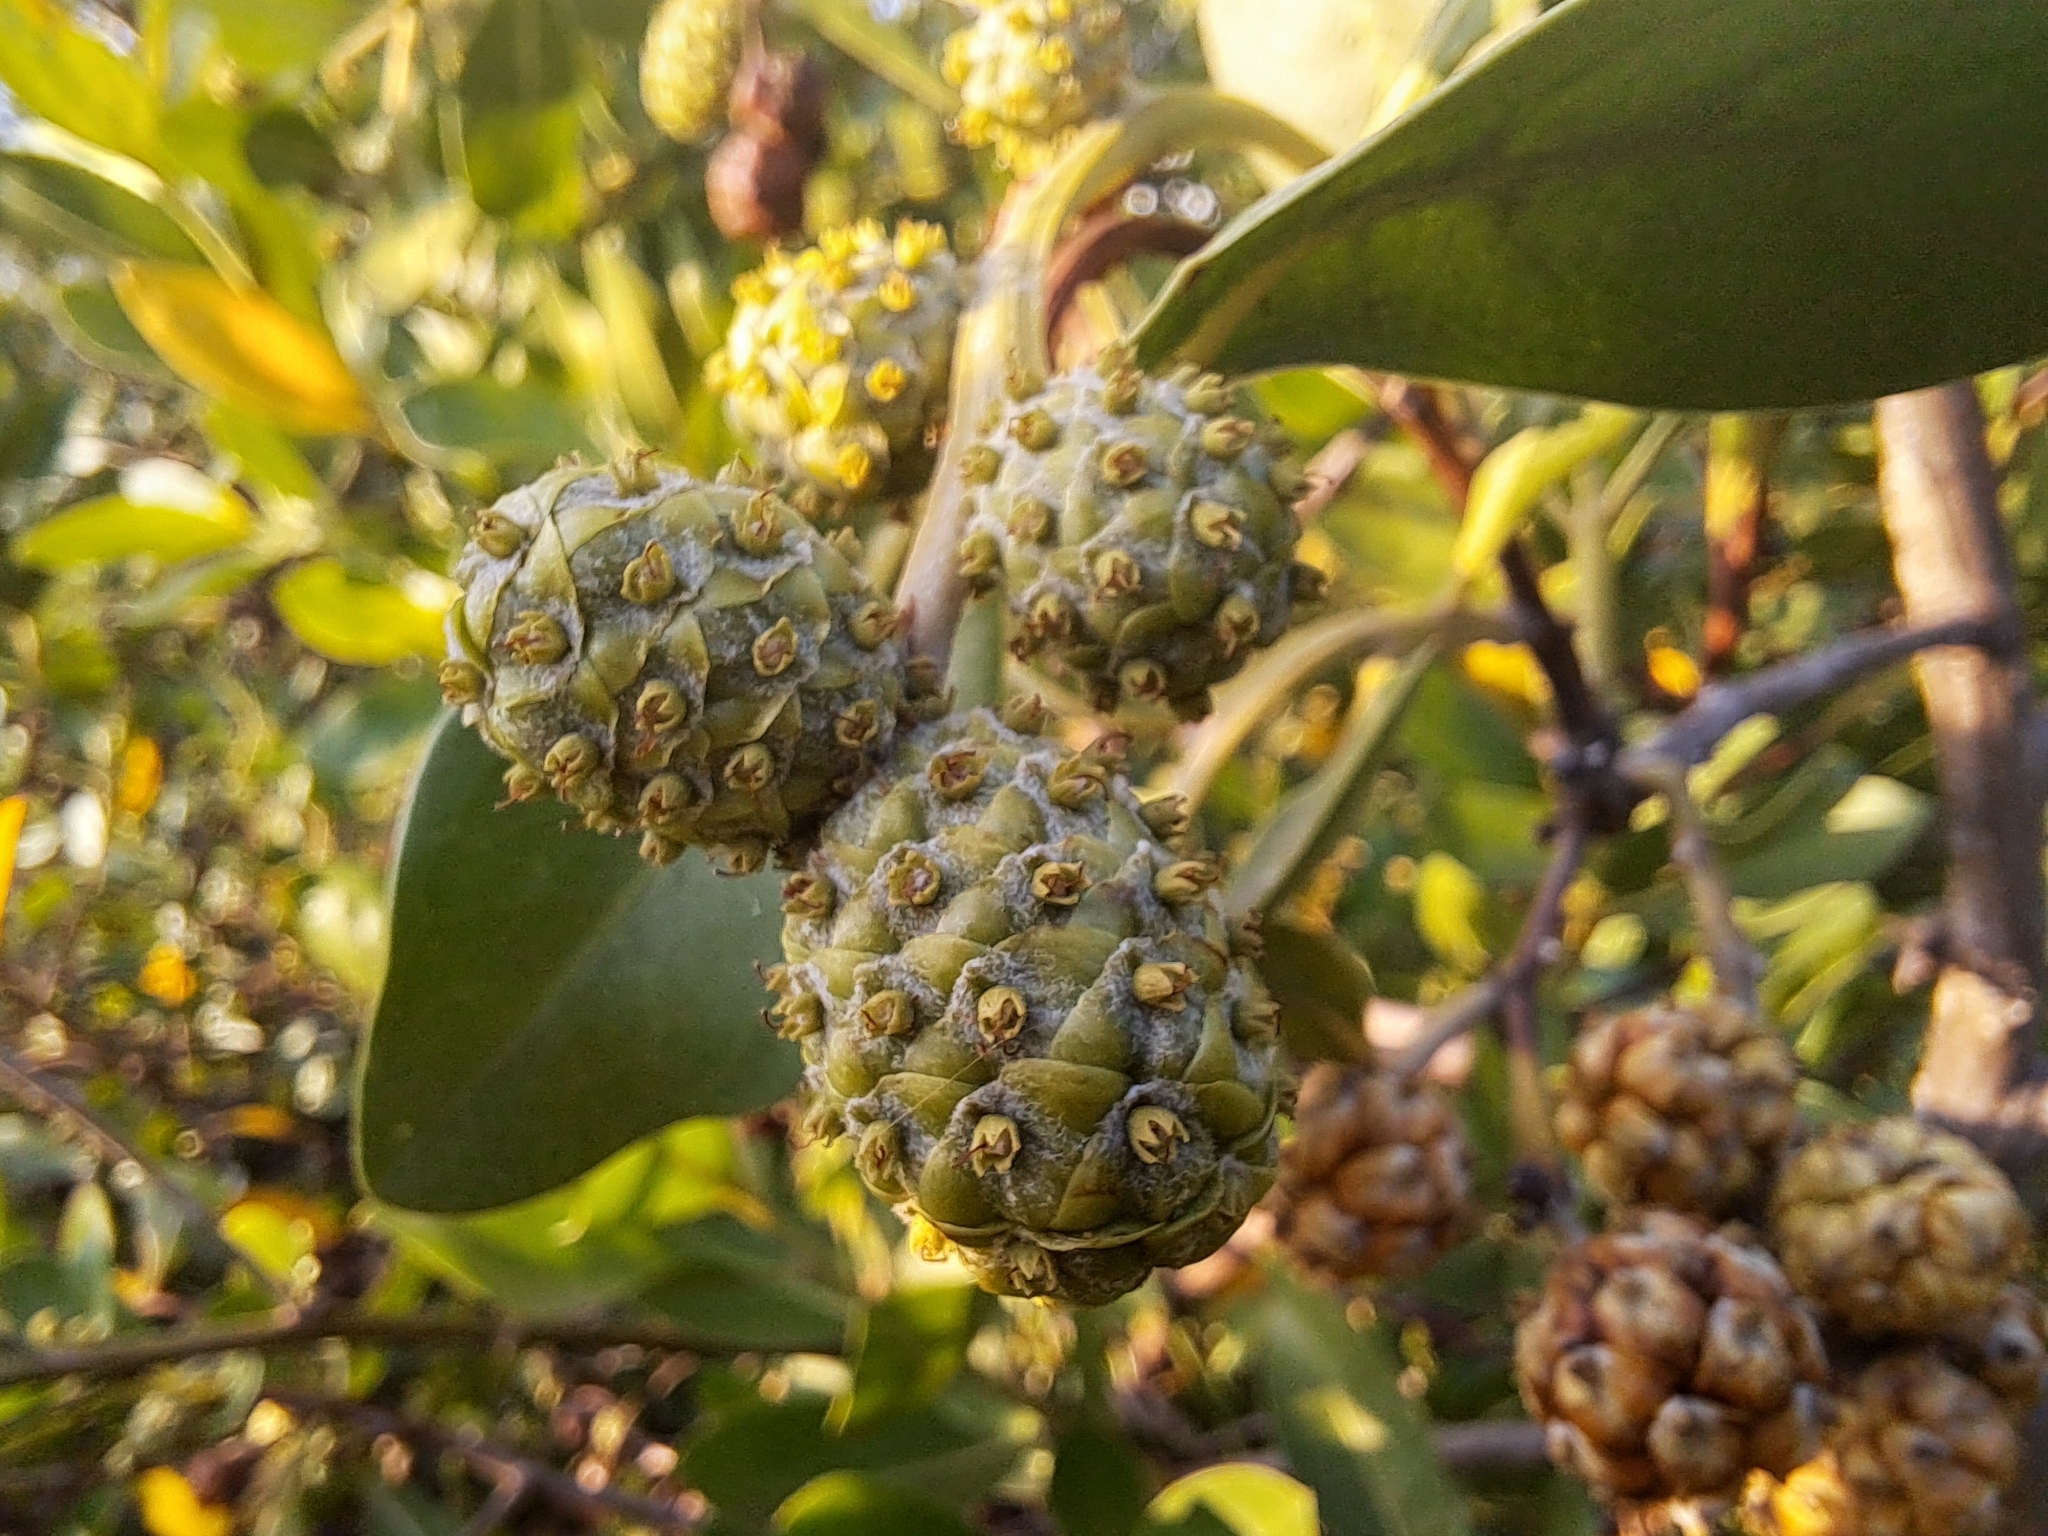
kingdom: Plantae
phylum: Tracheophyta
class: Magnoliopsida
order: Myrtales
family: Combretaceae
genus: Conocarpus
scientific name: Conocarpus erectus
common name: Button mangrove
